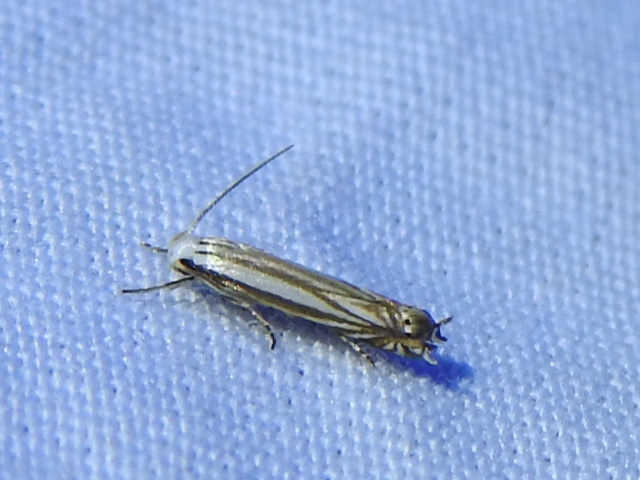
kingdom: Animalia
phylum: Arthropoda
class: Insecta
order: Lepidoptera
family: Gelechiidae
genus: Polyhymno
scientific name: Polyhymno luteostrigella
